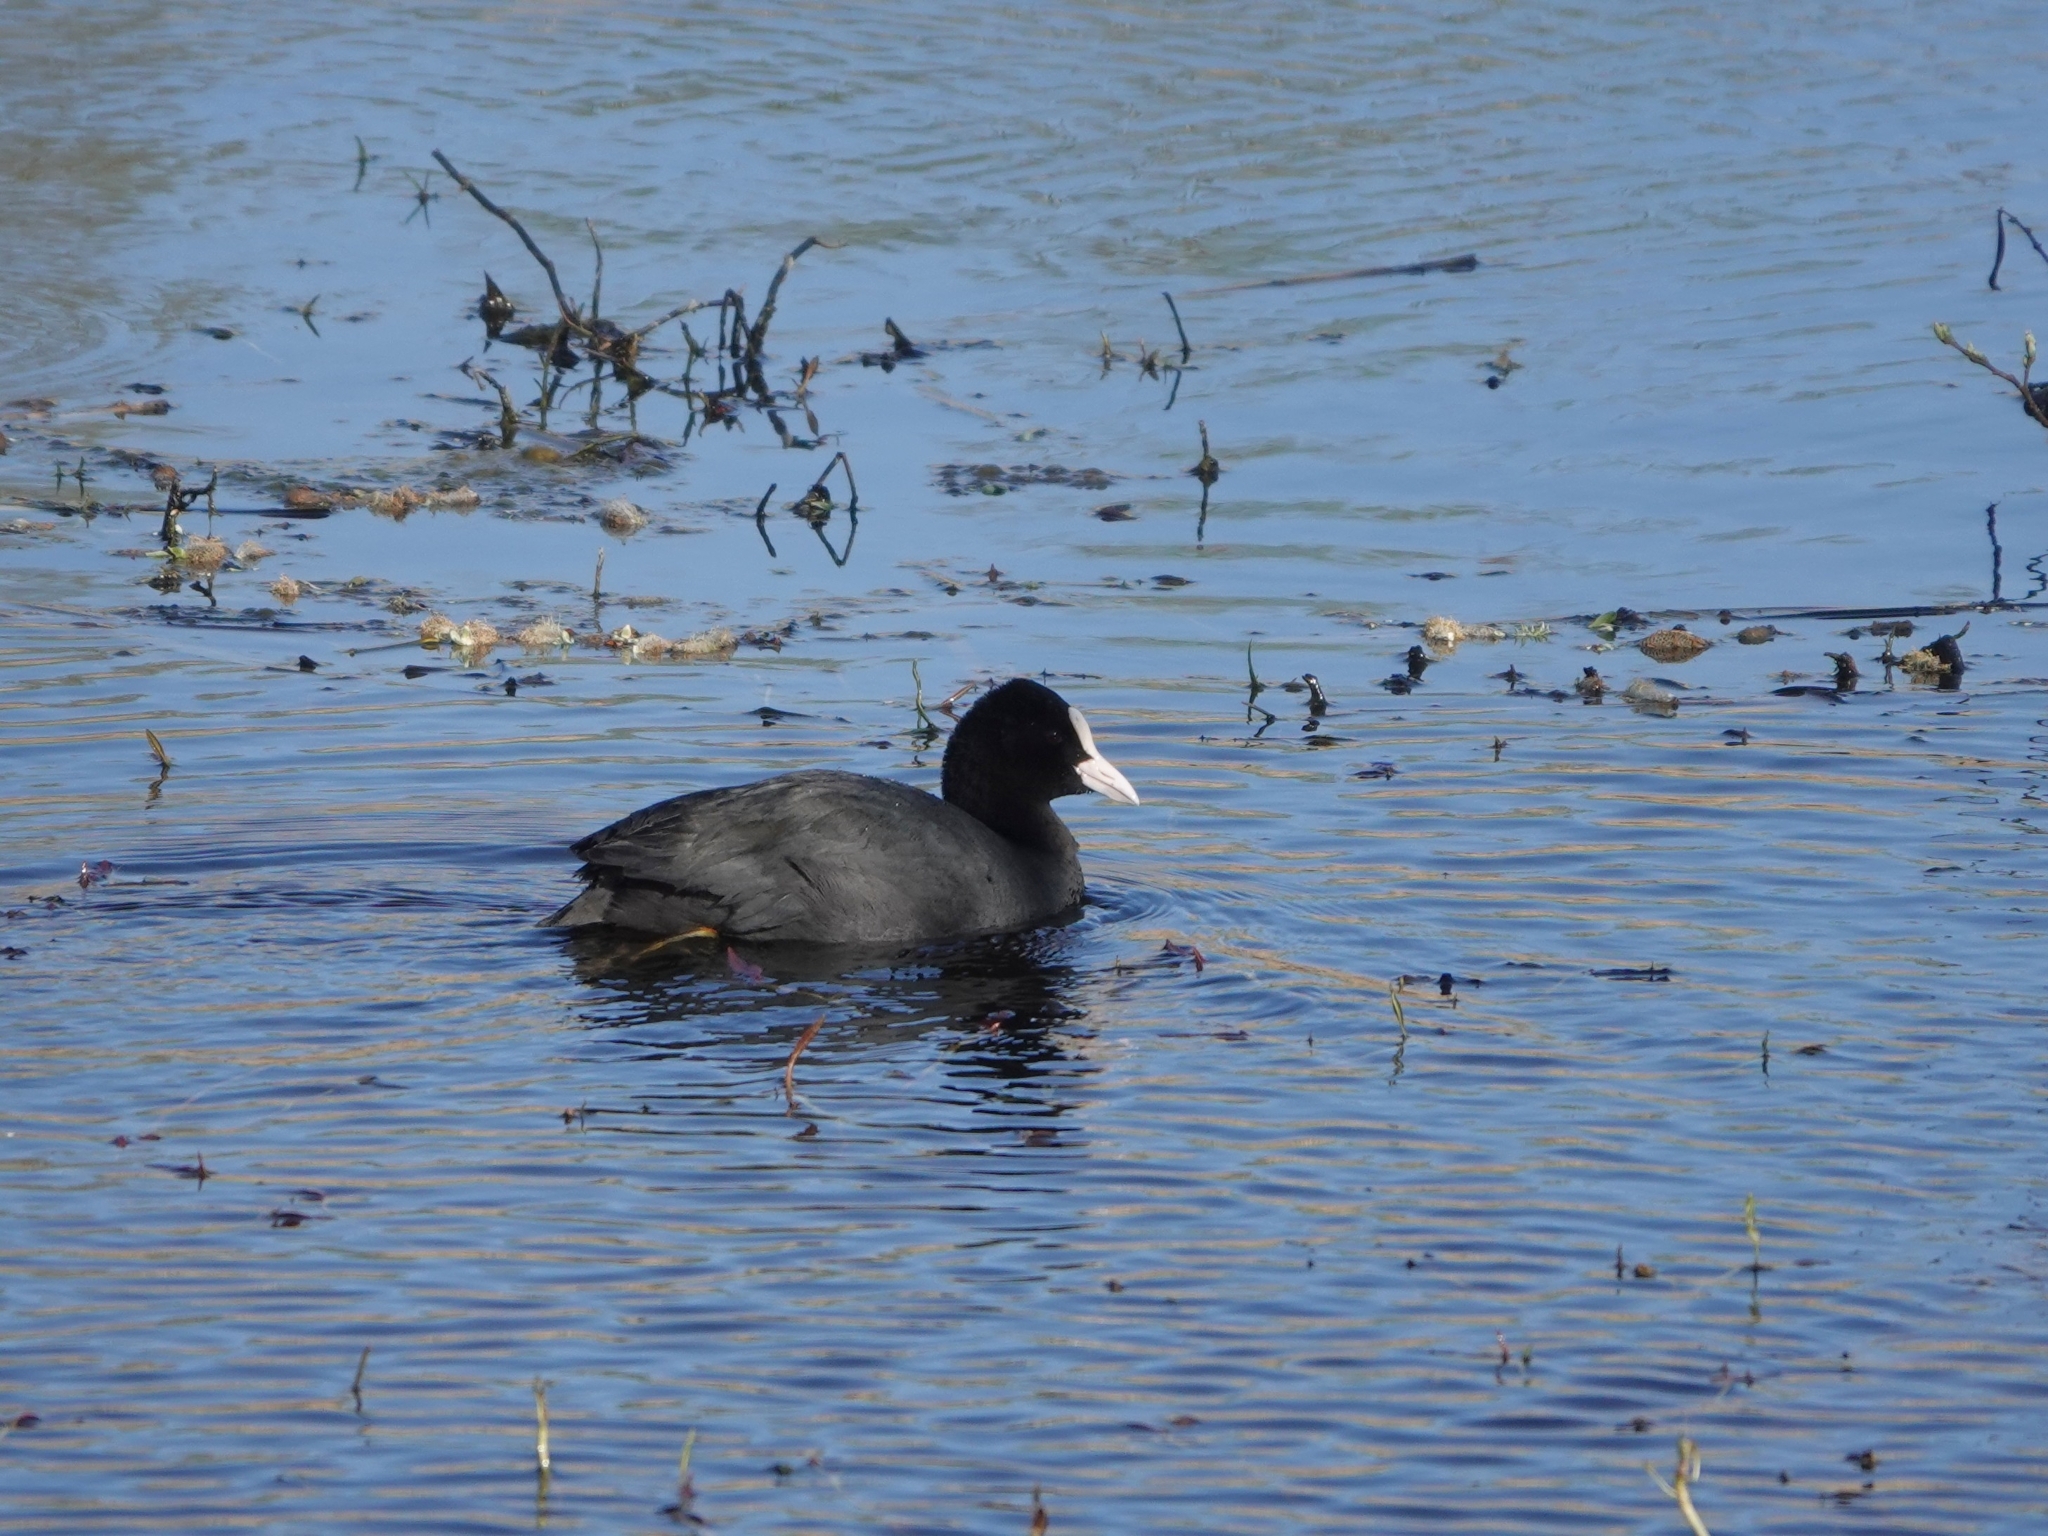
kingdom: Animalia
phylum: Chordata
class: Aves
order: Gruiformes
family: Rallidae
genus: Fulica
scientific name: Fulica atra
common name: Eurasian coot
